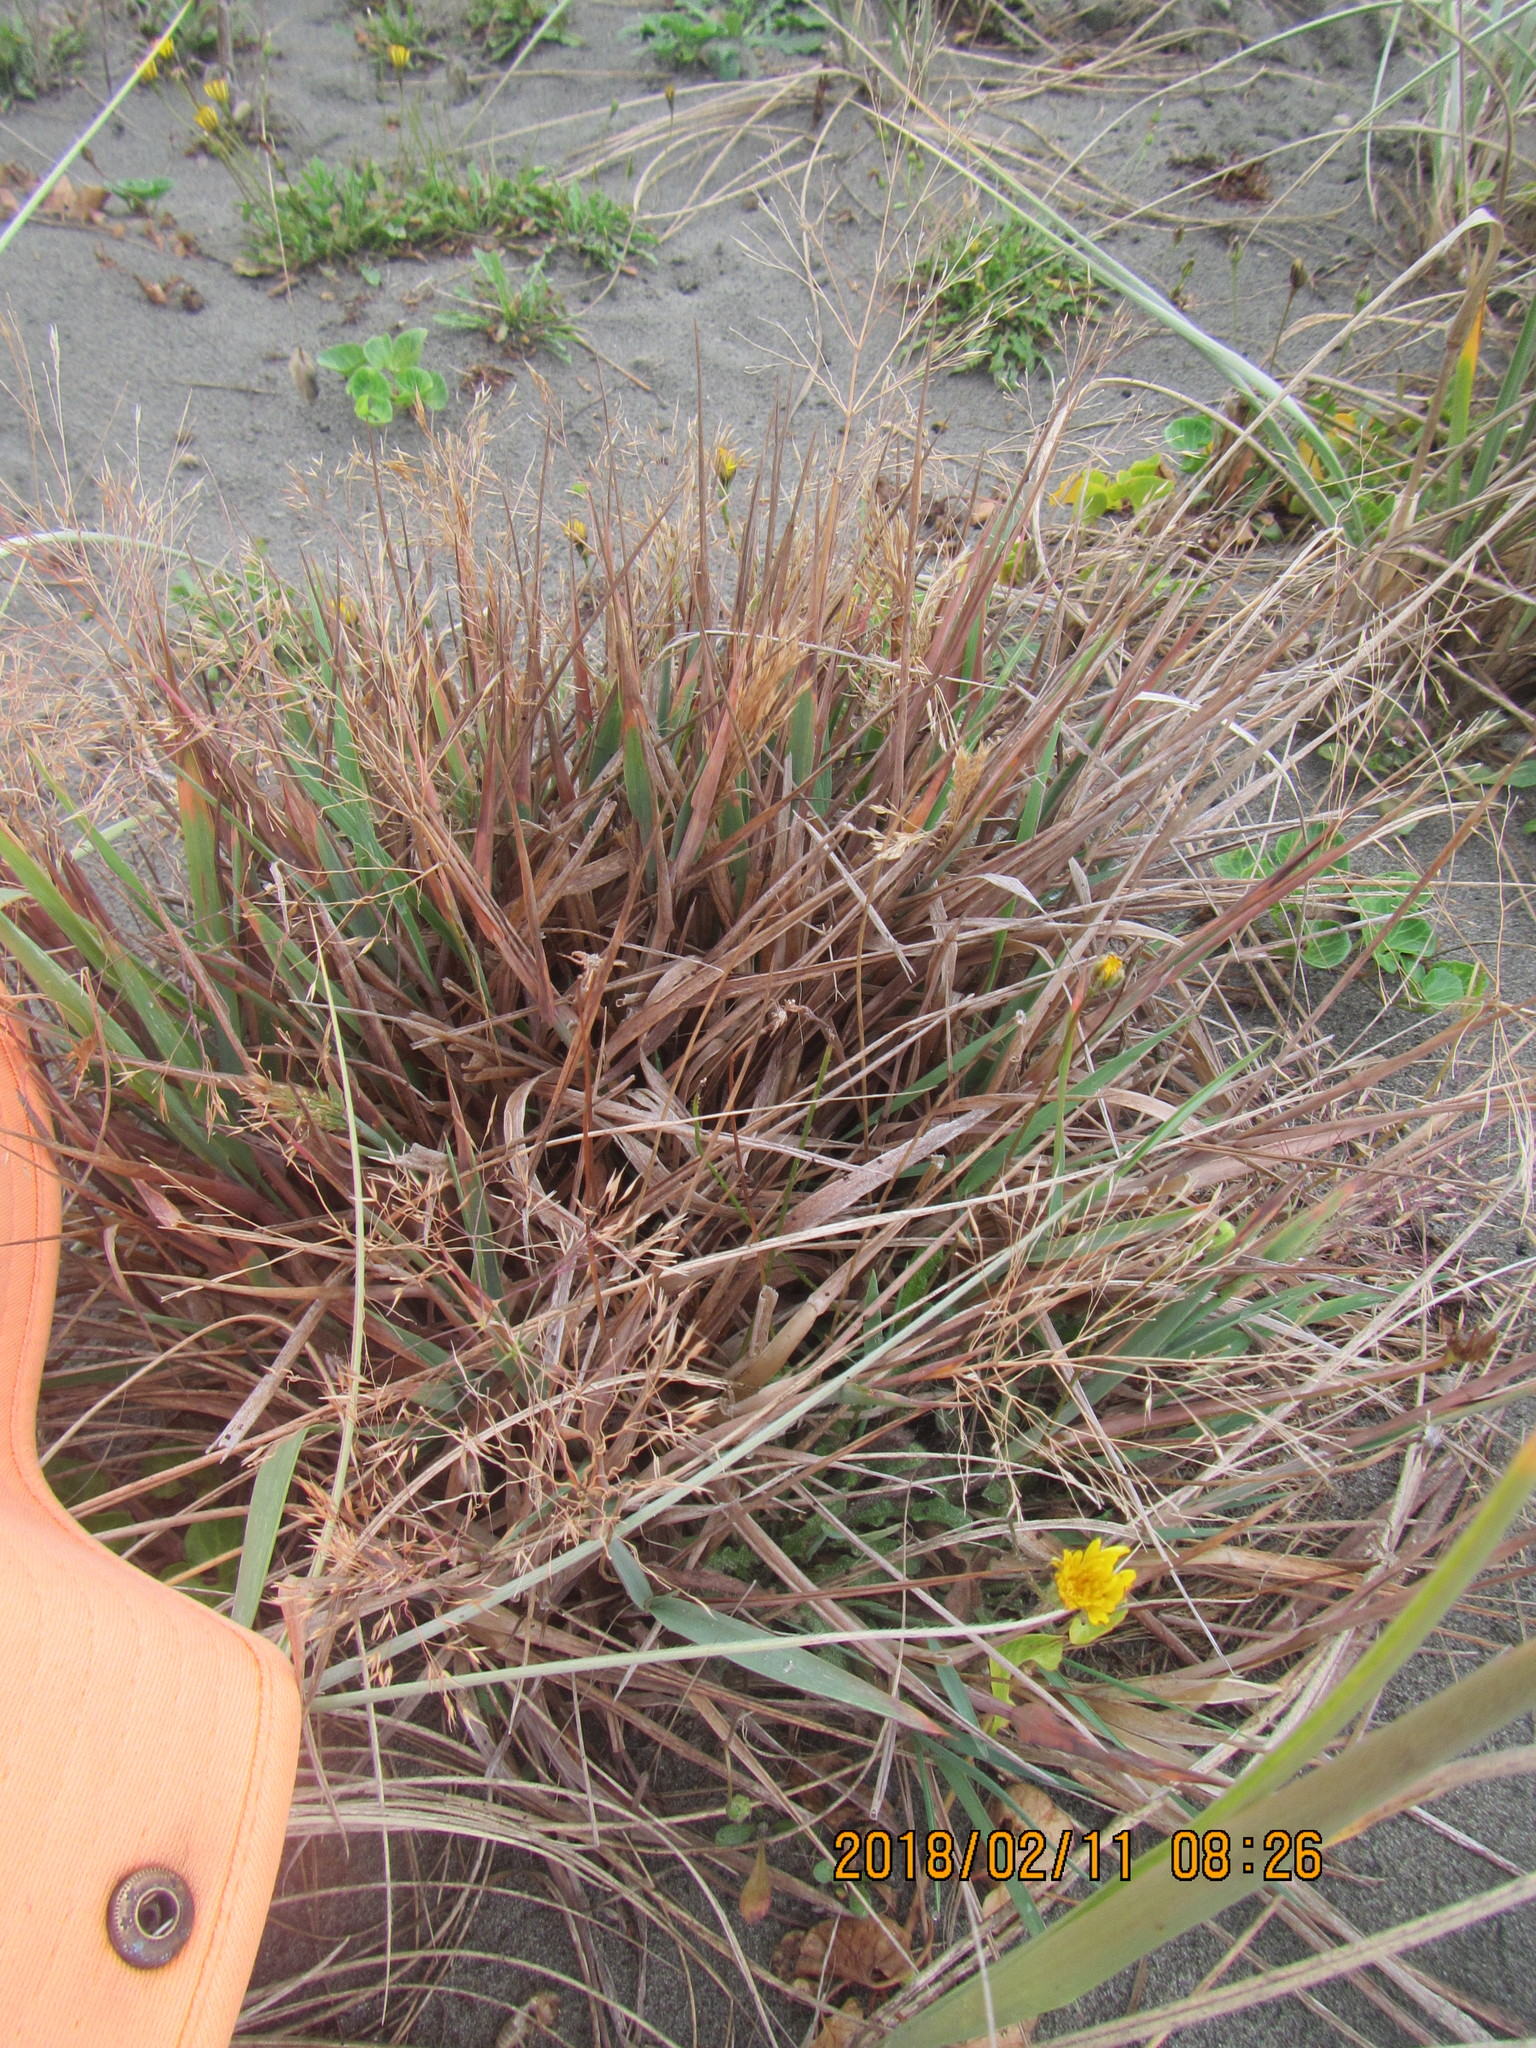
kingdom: Plantae
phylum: Tracheophyta
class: Liliopsida
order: Poales
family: Poaceae
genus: Lachnagrostis
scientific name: Lachnagrostis billardierei
